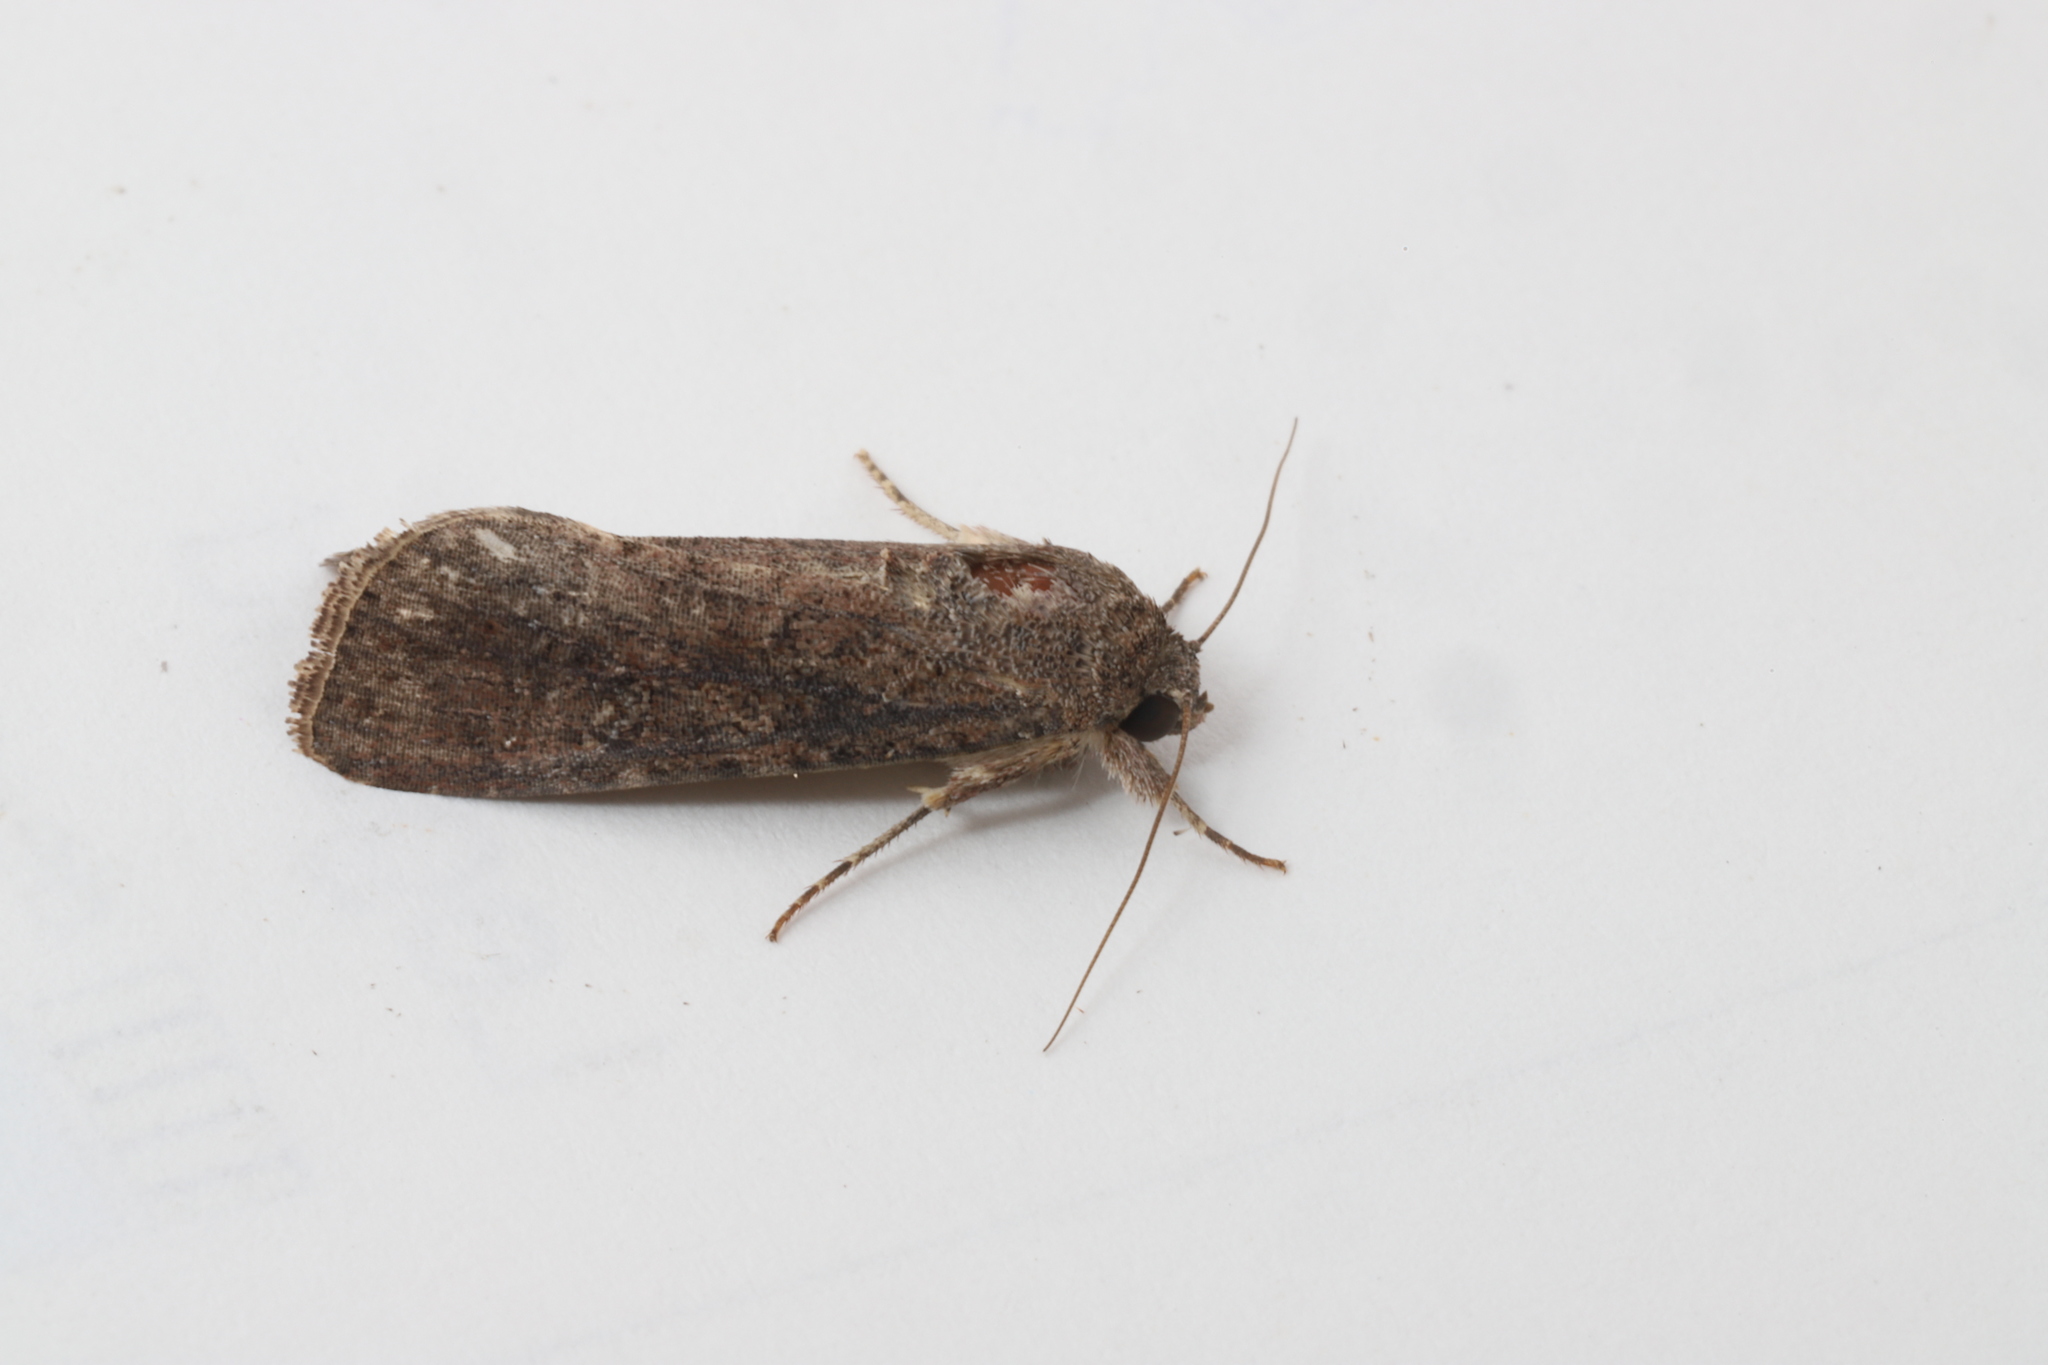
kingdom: Animalia
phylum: Arthropoda
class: Insecta
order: Lepidoptera
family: Noctuidae
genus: Spodoptera
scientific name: Spodoptera frugiperda
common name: Fall armyworm
